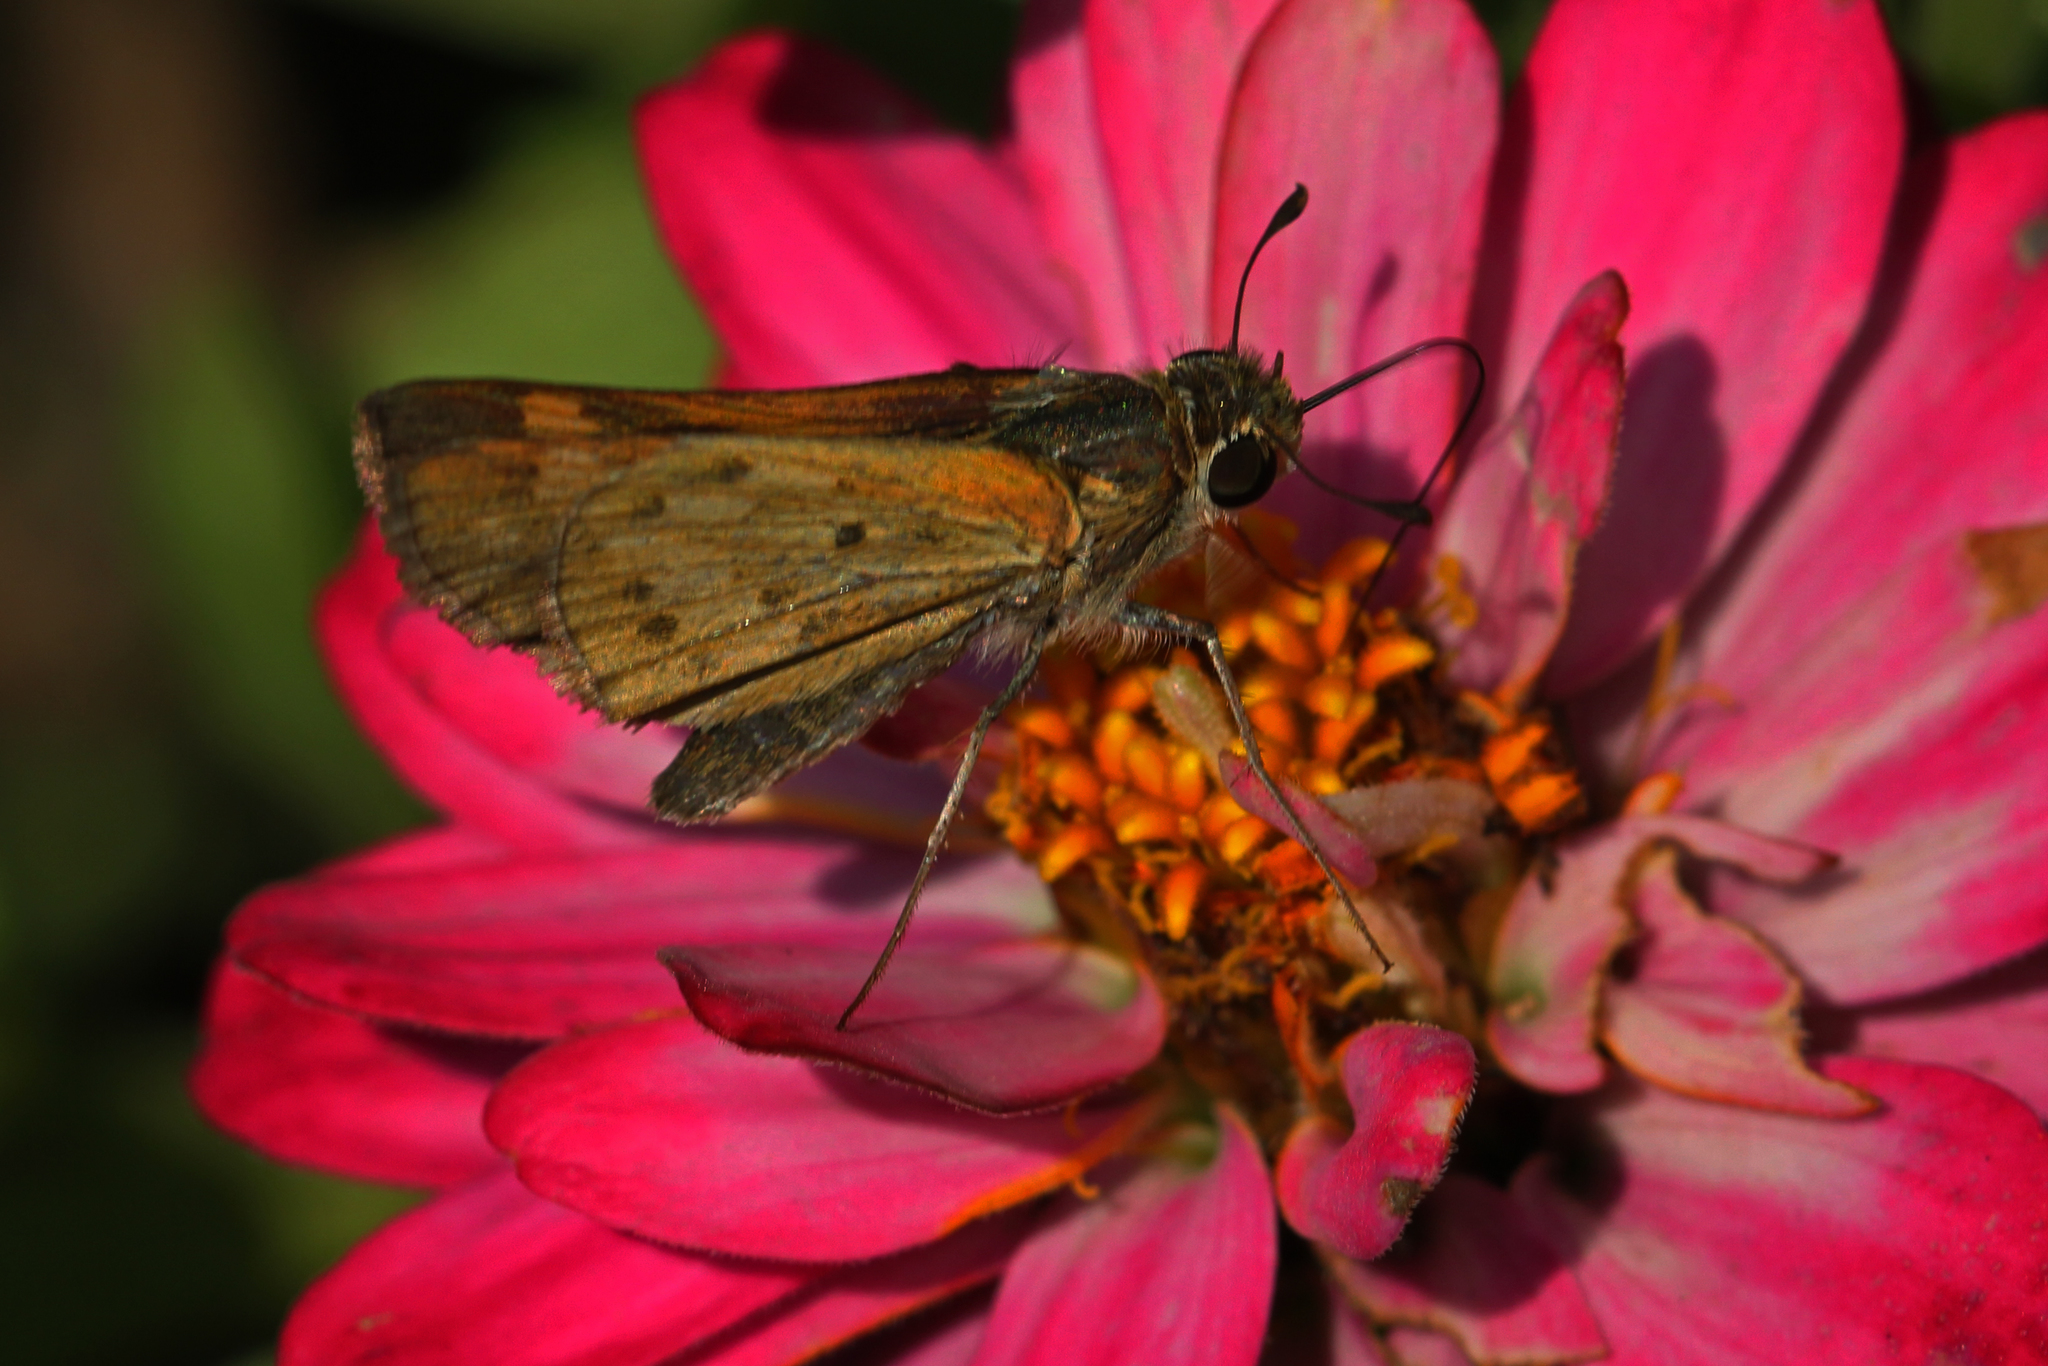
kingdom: Animalia
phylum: Arthropoda
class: Insecta
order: Lepidoptera
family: Hesperiidae
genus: Hylephila
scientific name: Hylephila phyleus
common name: Fiery skipper
